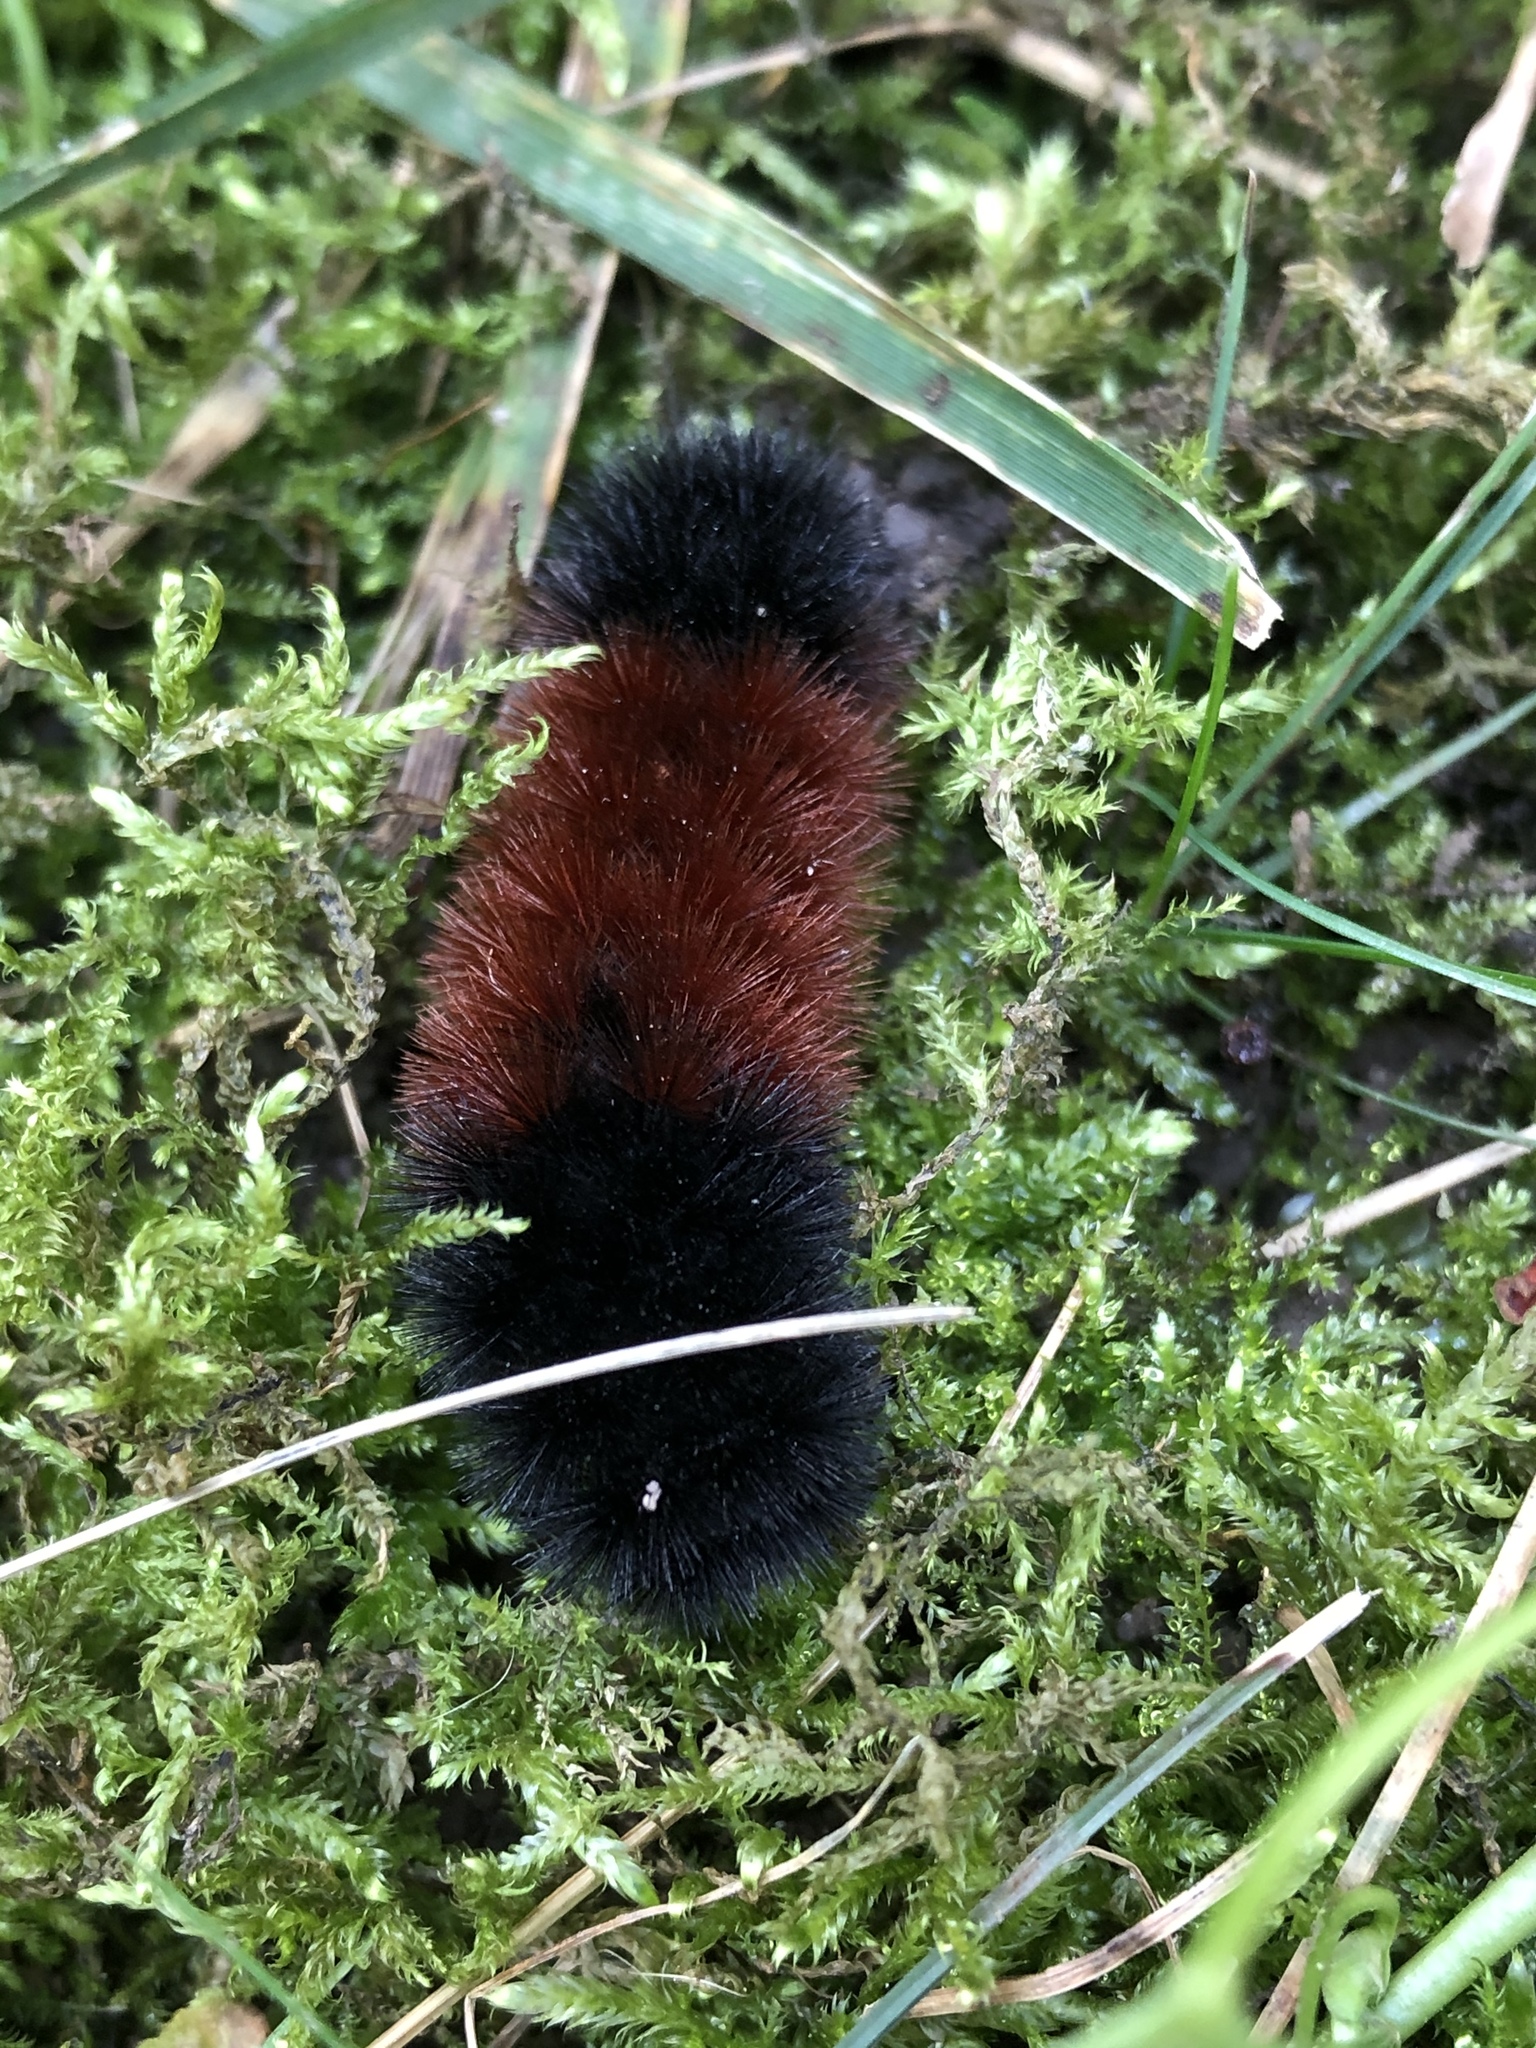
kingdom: Animalia
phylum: Arthropoda
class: Insecta
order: Lepidoptera
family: Erebidae
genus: Pyrrharctia
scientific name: Pyrrharctia isabella
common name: Isabella tiger moth
